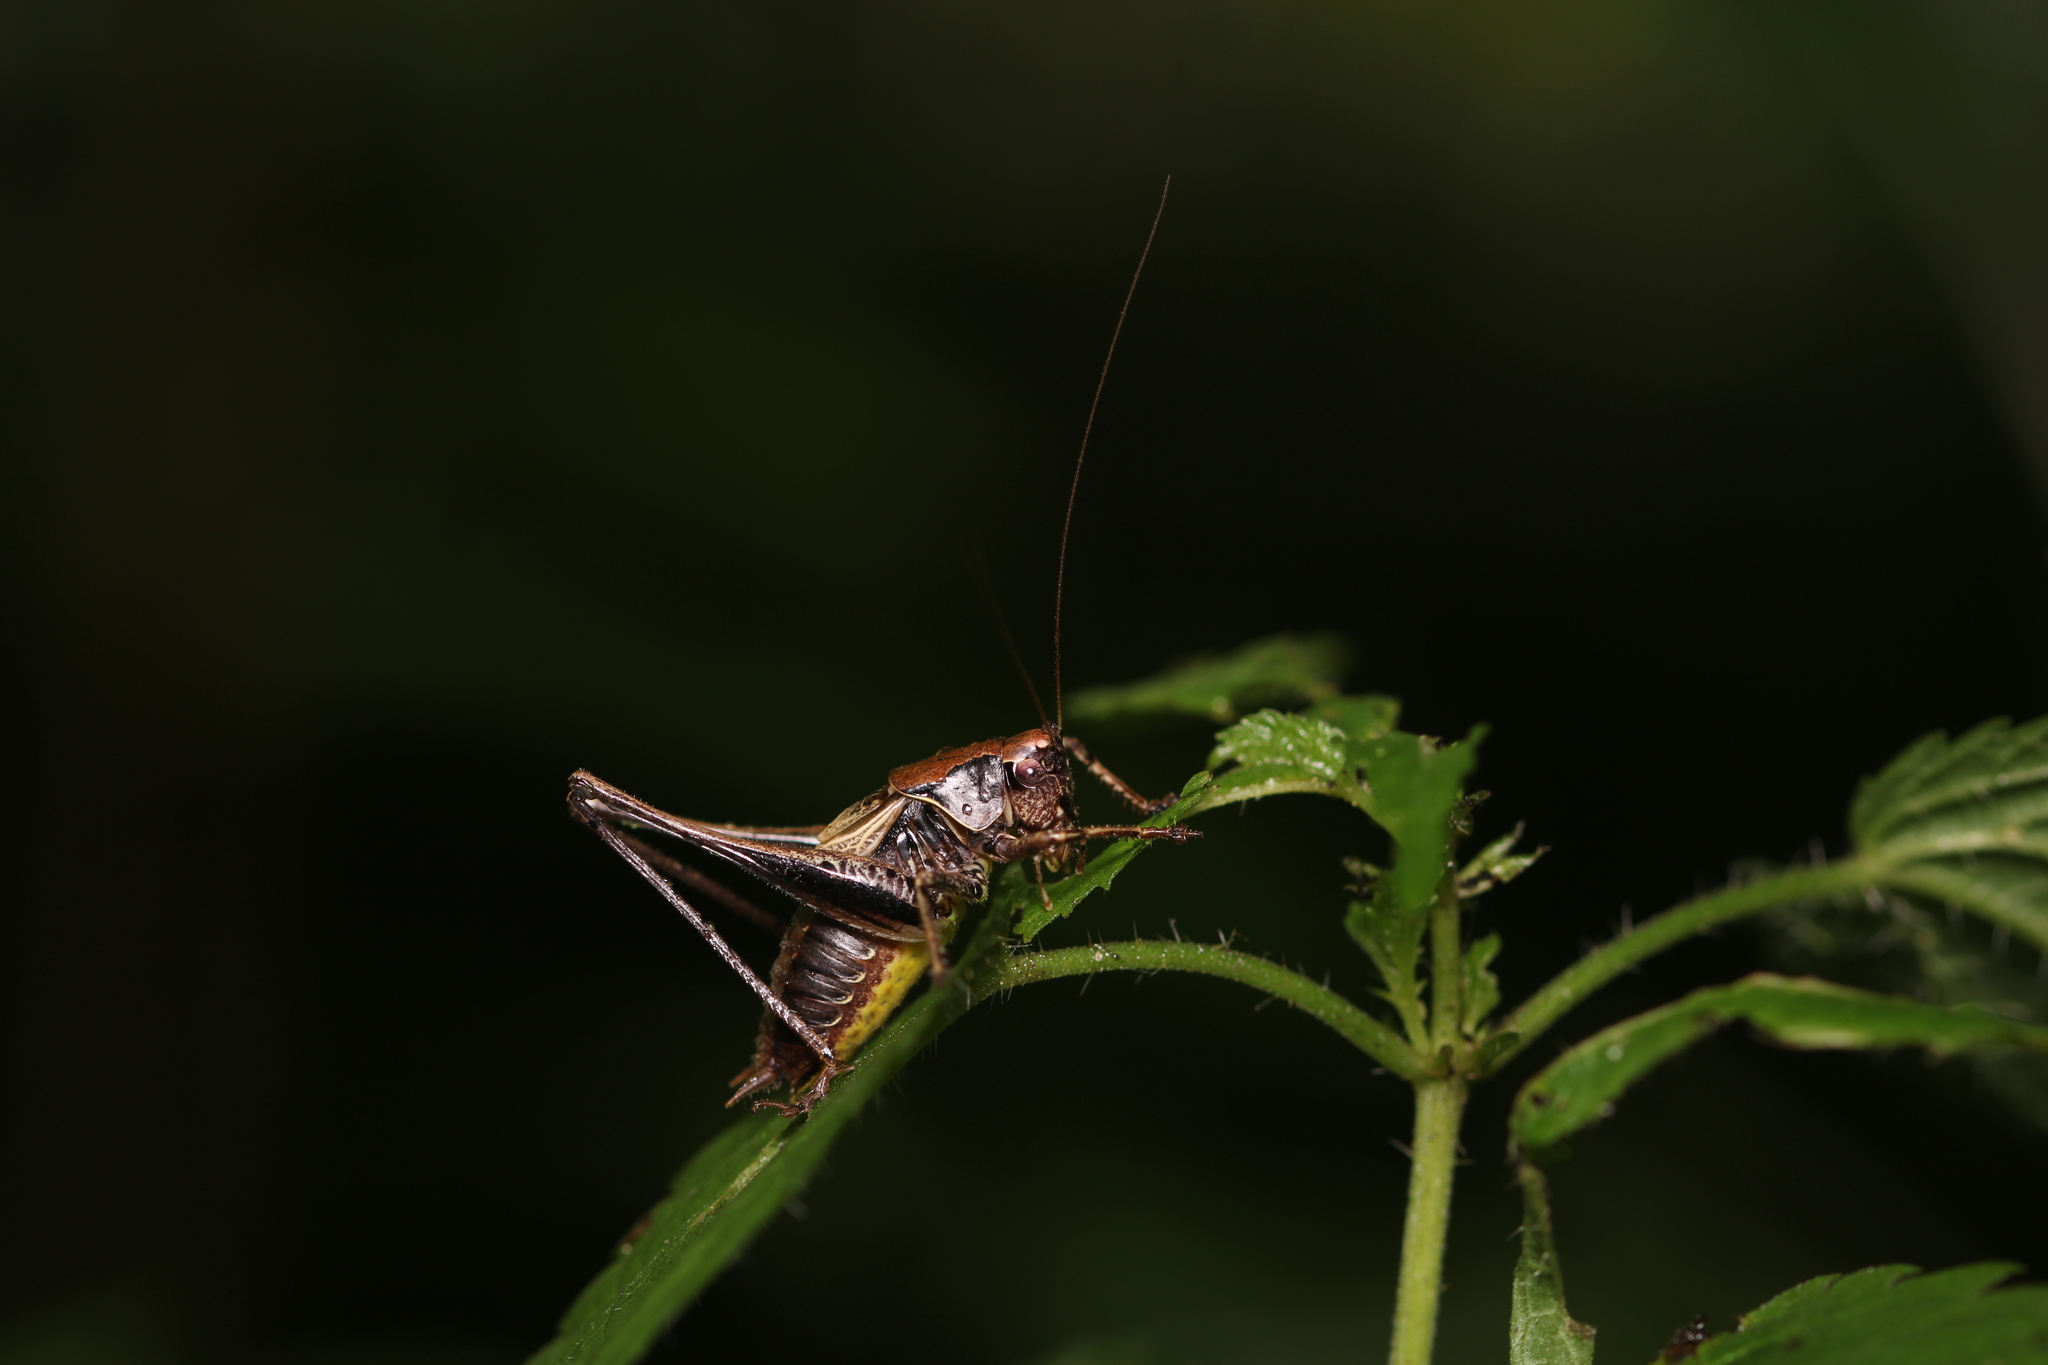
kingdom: Animalia
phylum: Arthropoda
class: Insecta
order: Orthoptera
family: Tettigoniidae
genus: Pholidoptera
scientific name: Pholidoptera griseoaptera
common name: Dark bush-cricket
